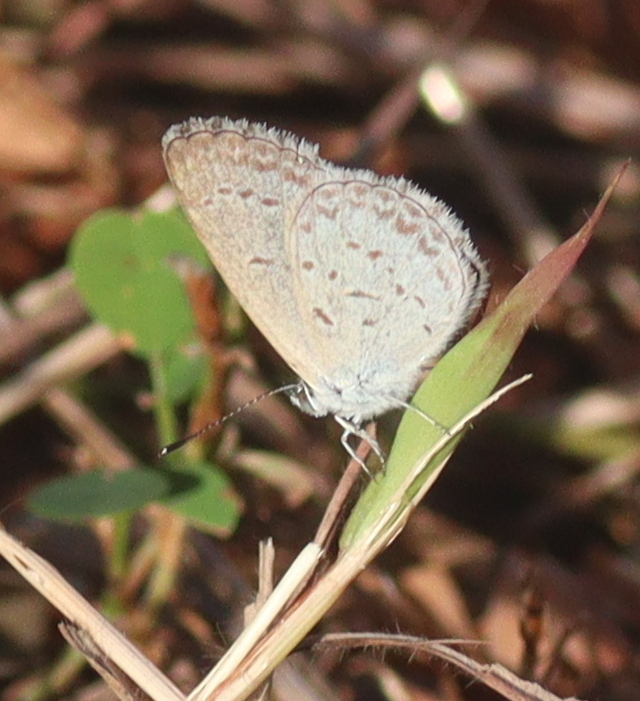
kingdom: Animalia
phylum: Arthropoda
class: Insecta
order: Lepidoptera
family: Lycaenidae
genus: Zizina
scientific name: Zizina otis
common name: Lesser grass blue
